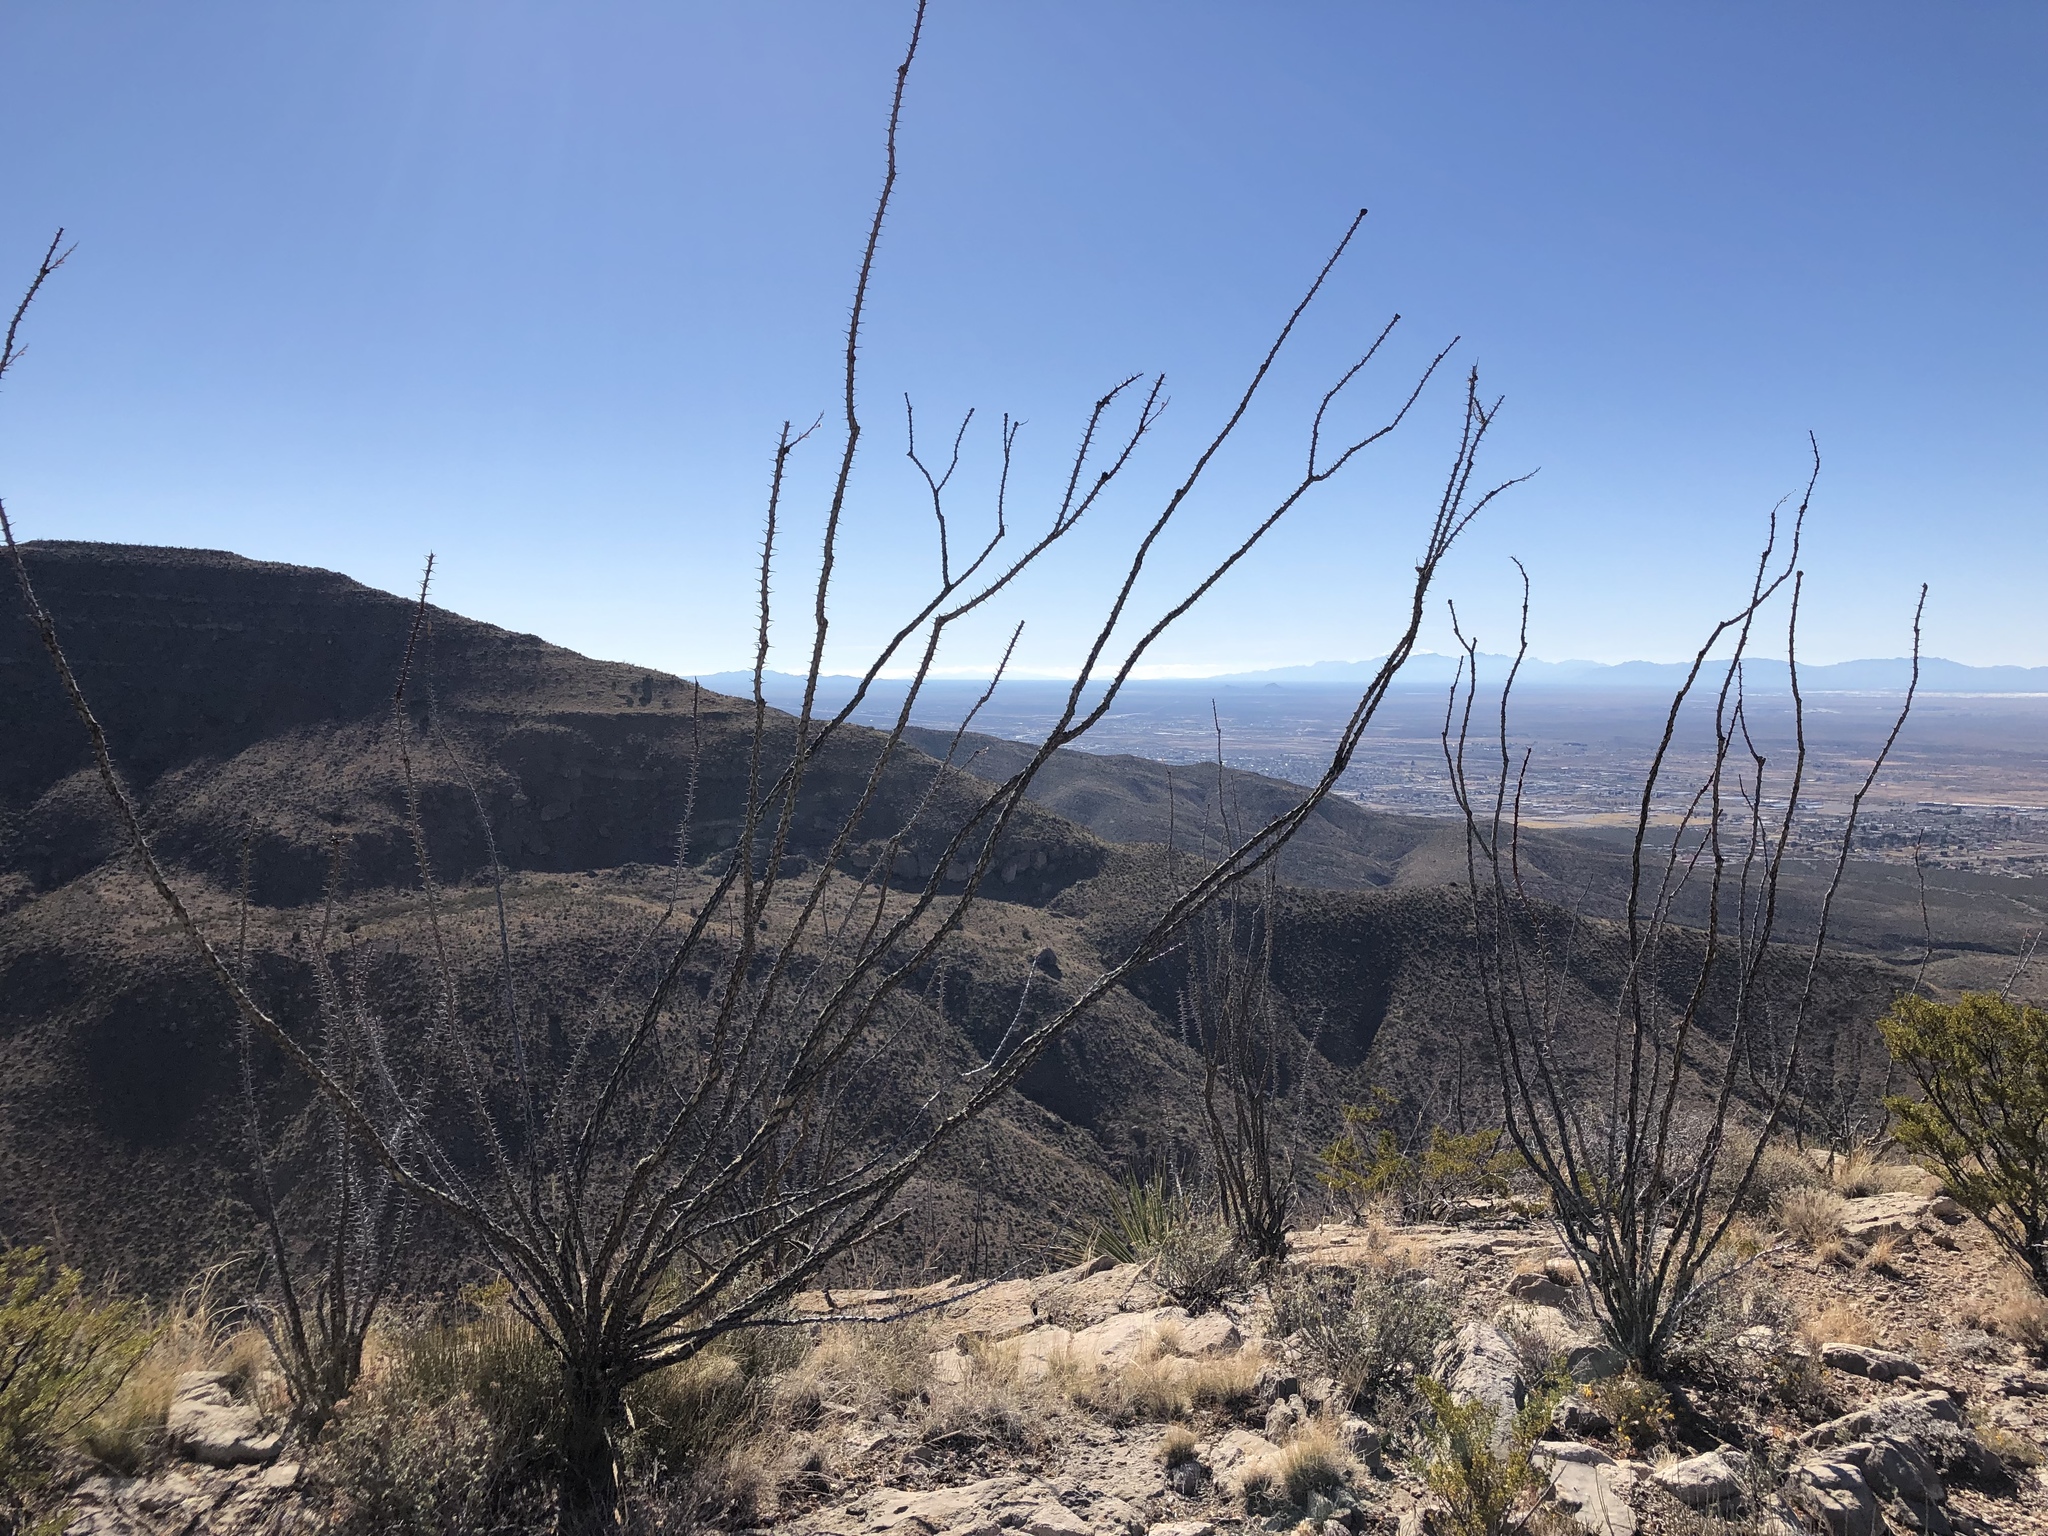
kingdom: Plantae
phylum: Tracheophyta
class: Magnoliopsida
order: Ericales
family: Fouquieriaceae
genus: Fouquieria
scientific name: Fouquieria splendens
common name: Vine-cactus
